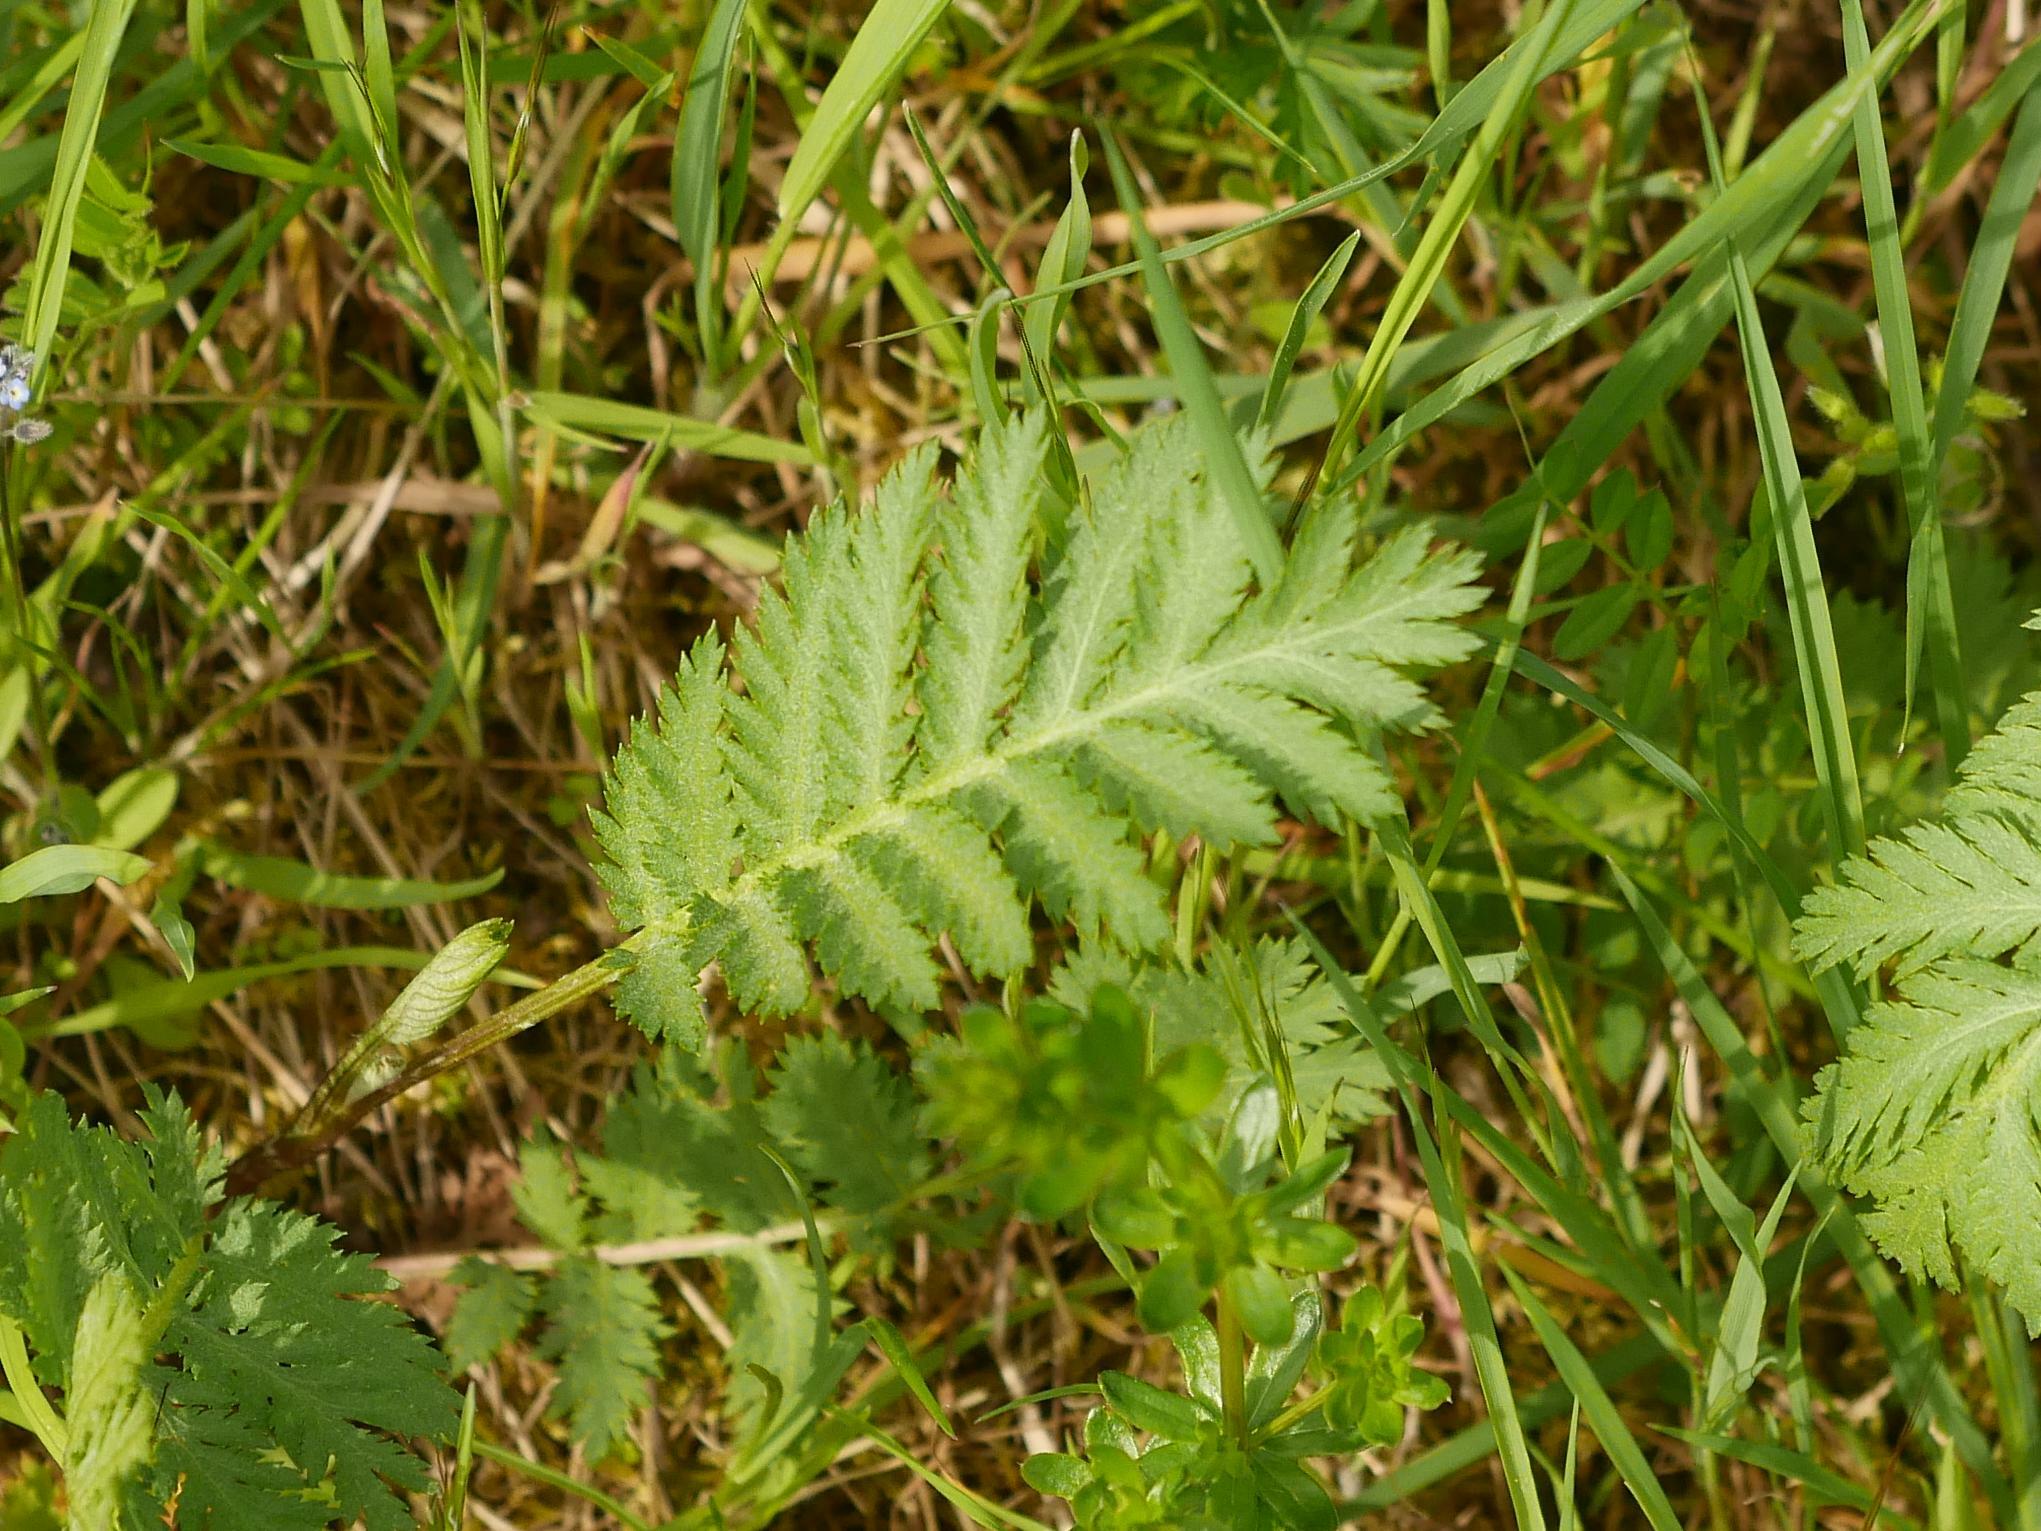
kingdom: Plantae
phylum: Tracheophyta
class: Magnoliopsida
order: Asterales
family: Asteraceae
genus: Tanacetum
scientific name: Tanacetum vulgare
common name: Common tansy
